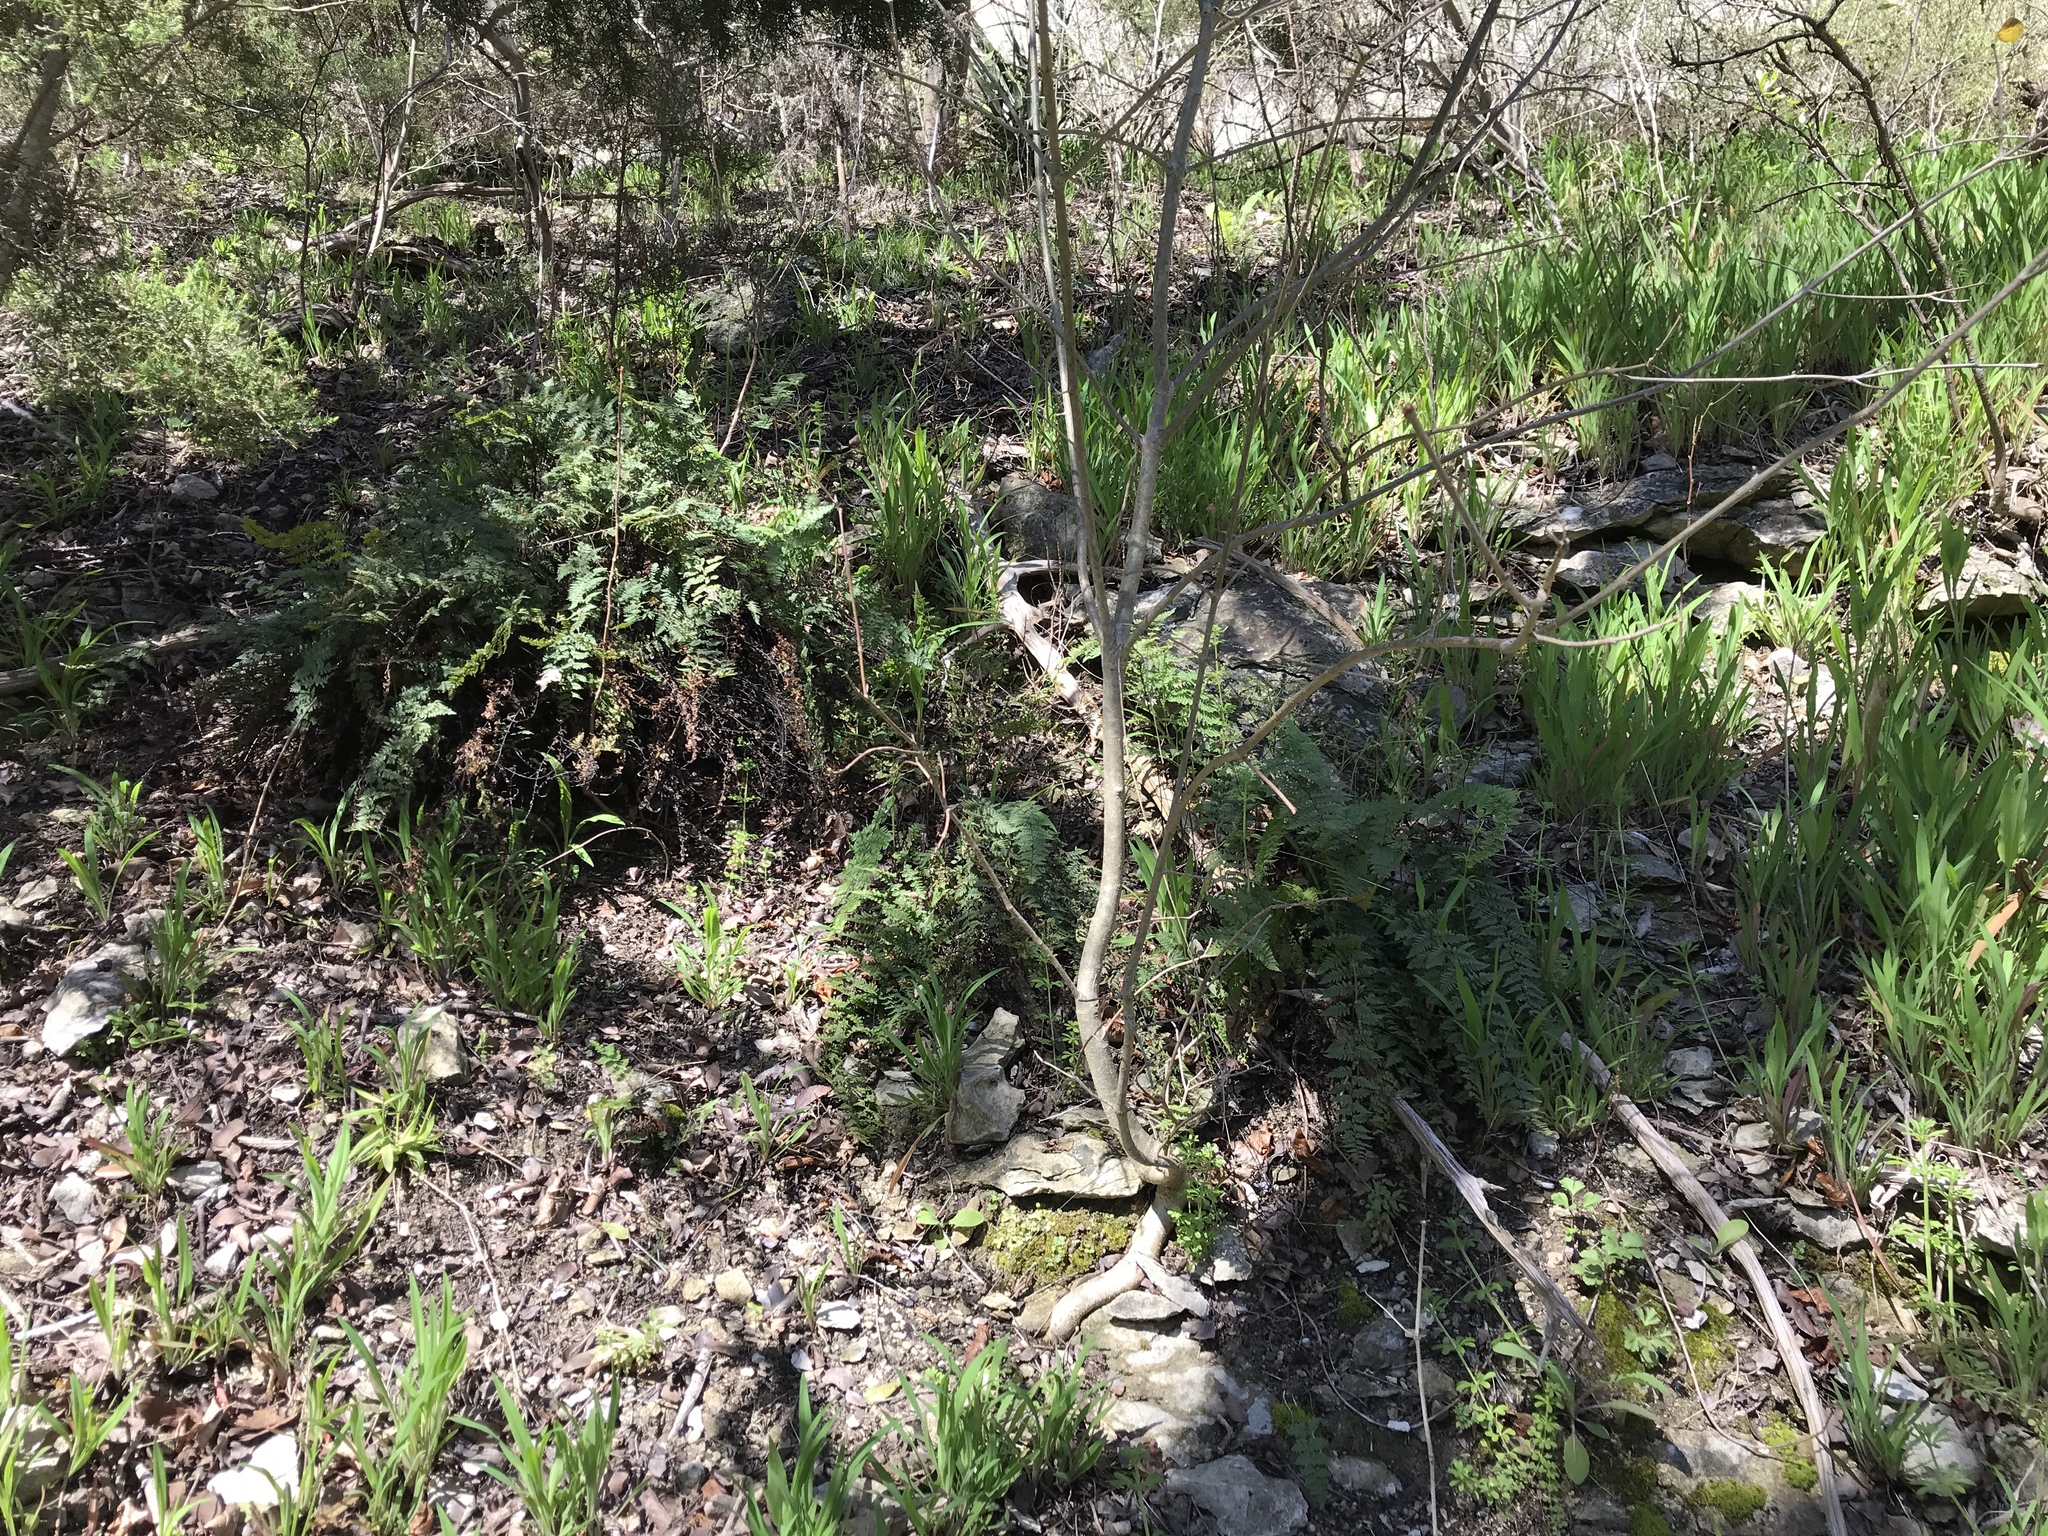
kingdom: Plantae
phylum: Tracheophyta
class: Polypodiopsida
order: Polypodiales
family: Pteridaceae
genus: Myriopteris
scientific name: Myriopteris alabamensis
